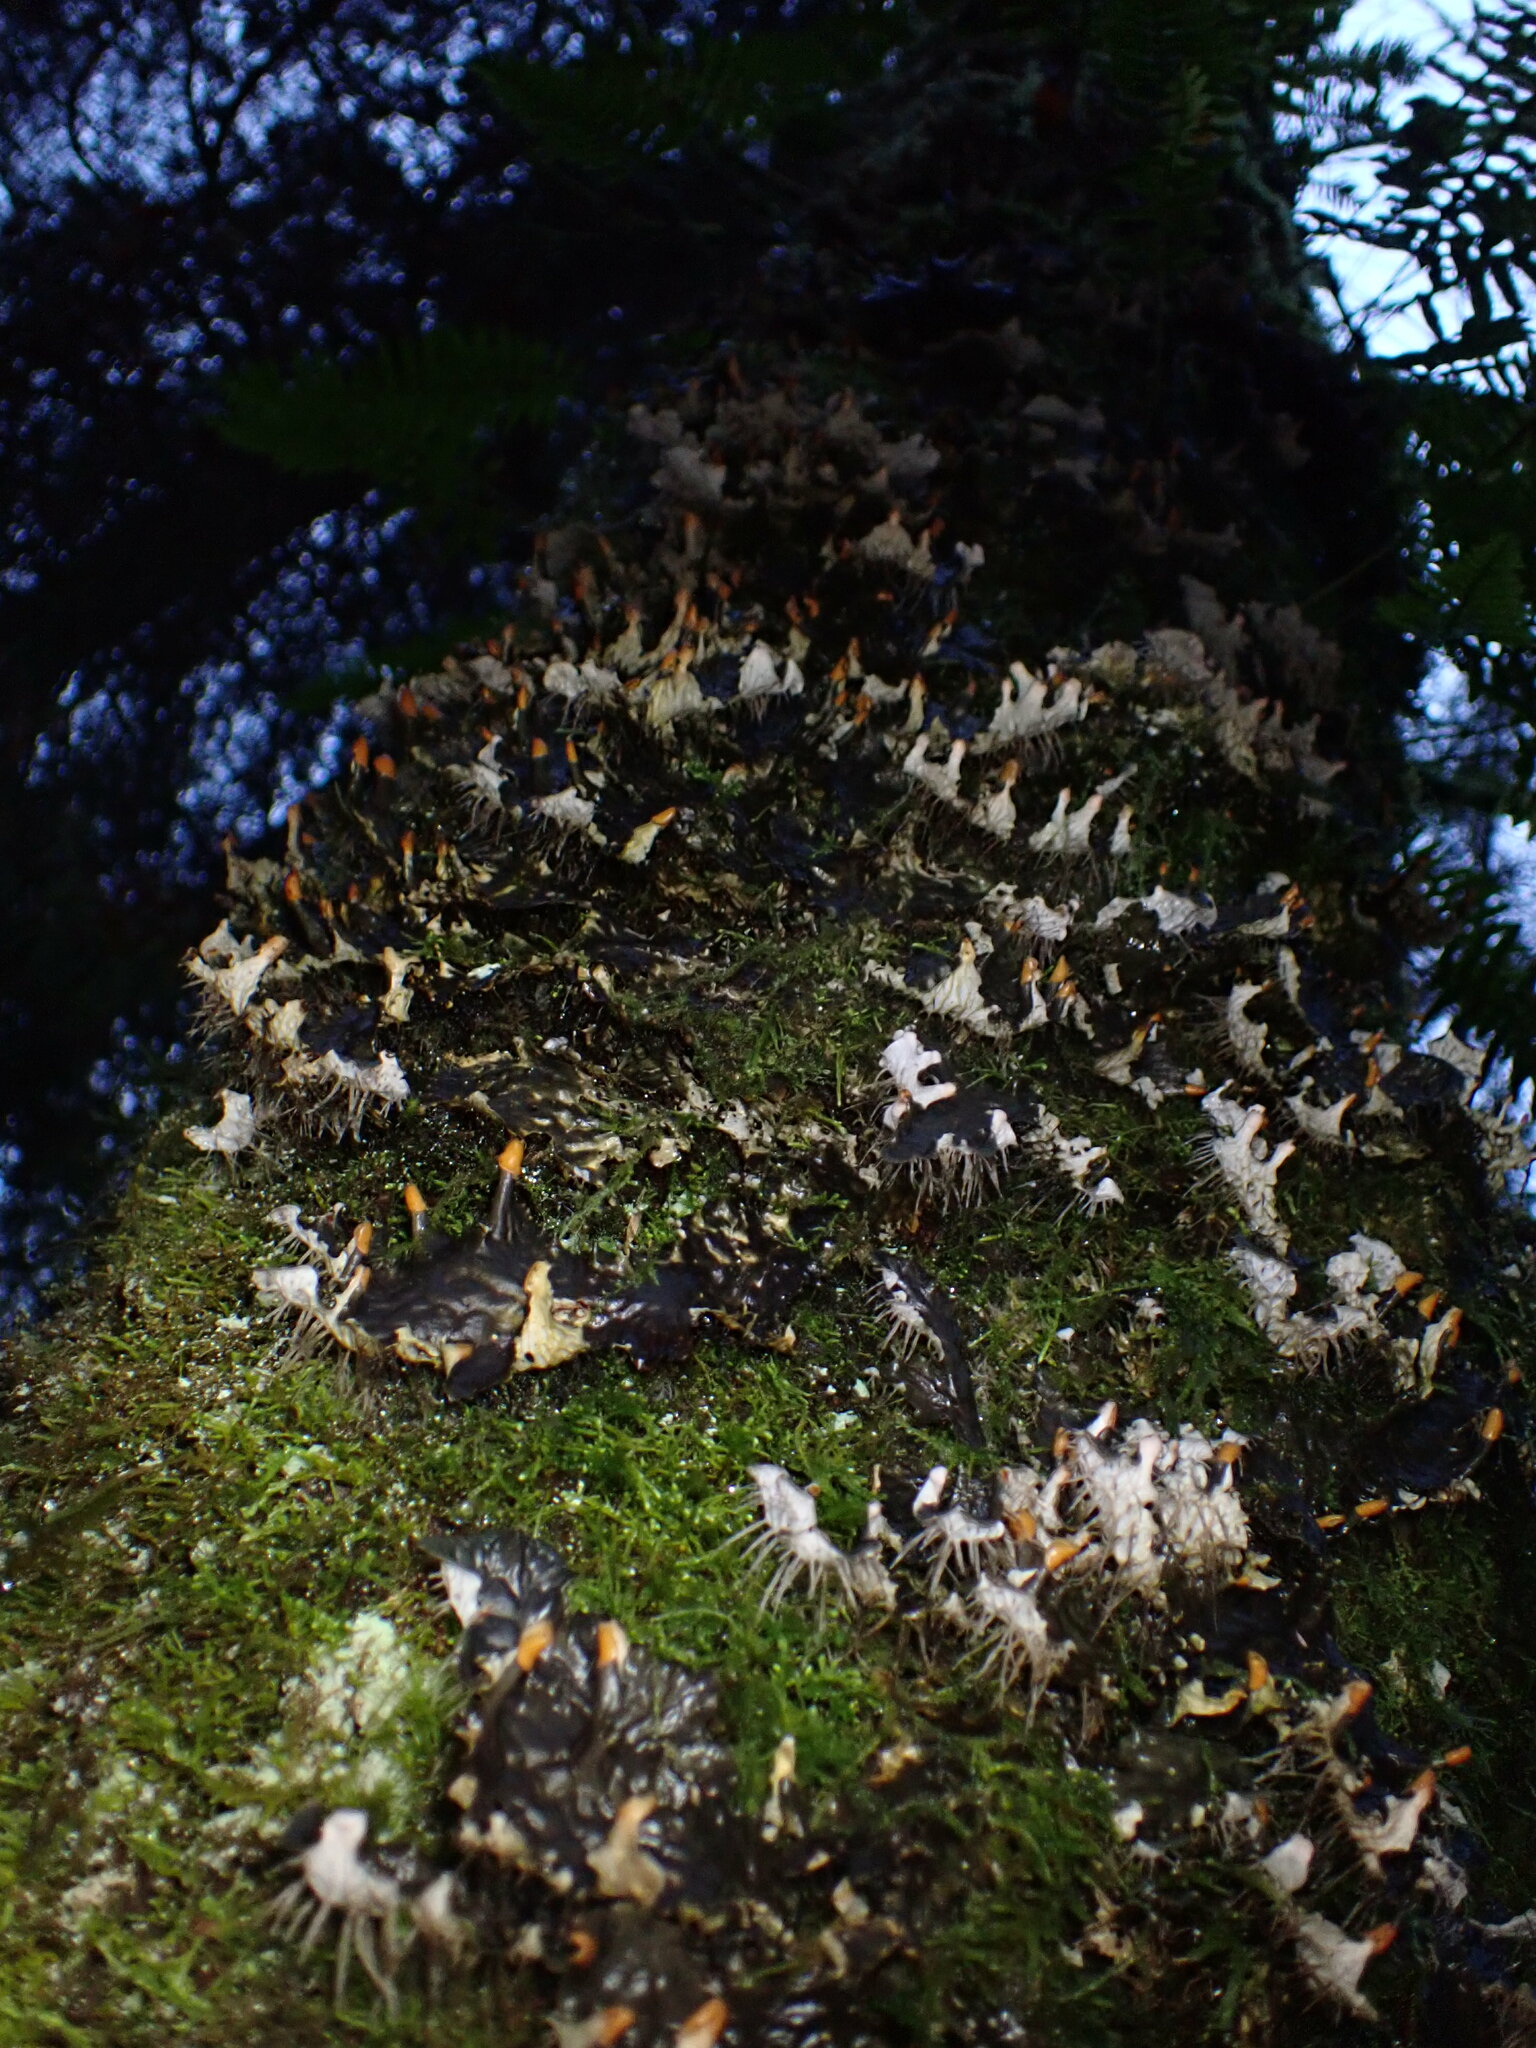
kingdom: Fungi
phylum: Ascomycota
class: Lecanoromycetes
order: Peltigerales
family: Peltigeraceae
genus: Peltigera
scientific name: Peltigera membranacea
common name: Membranous pelt lichen
